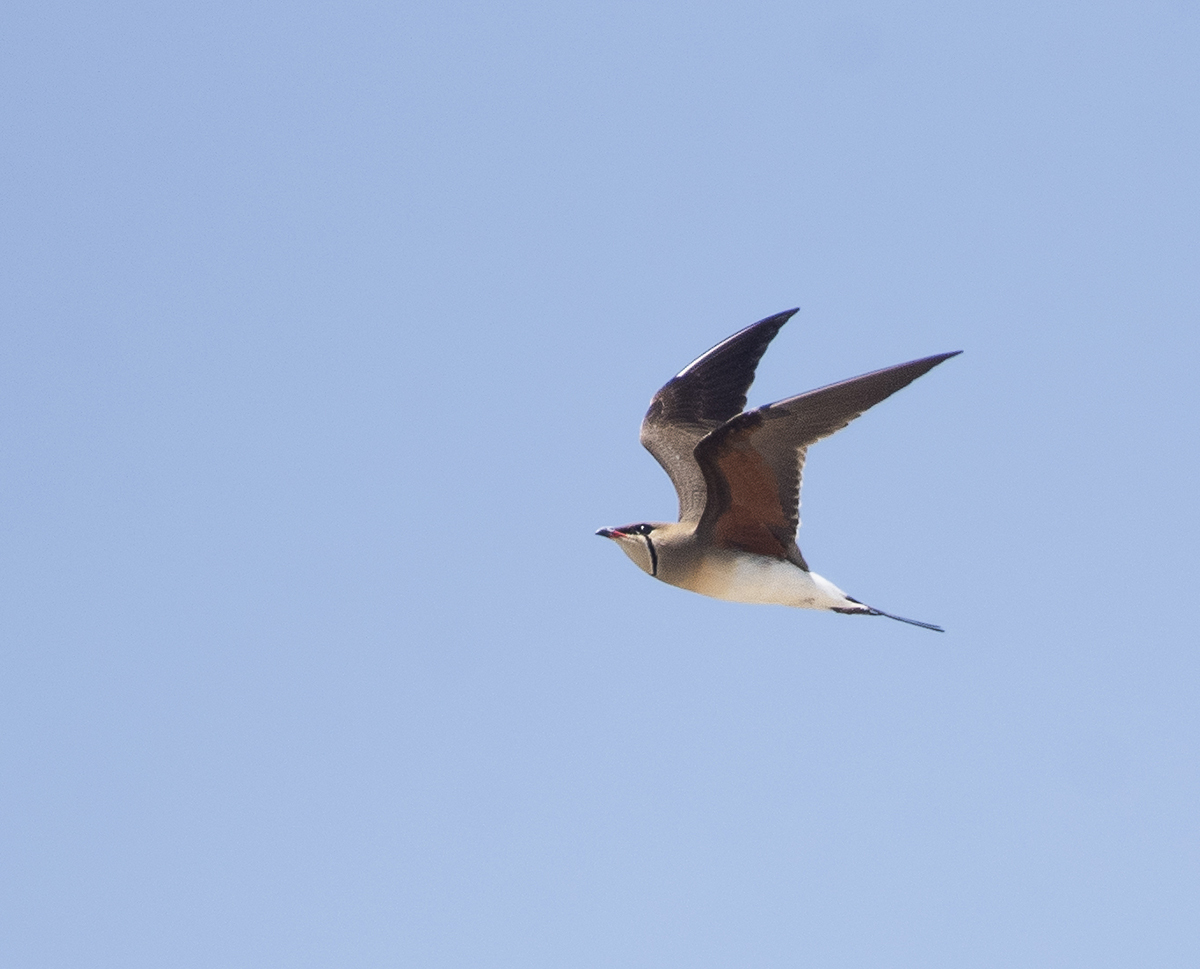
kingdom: Animalia
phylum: Chordata
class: Aves
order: Charadriiformes
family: Glareolidae
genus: Glareola
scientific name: Glareola pratincola
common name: Collared pratincole
